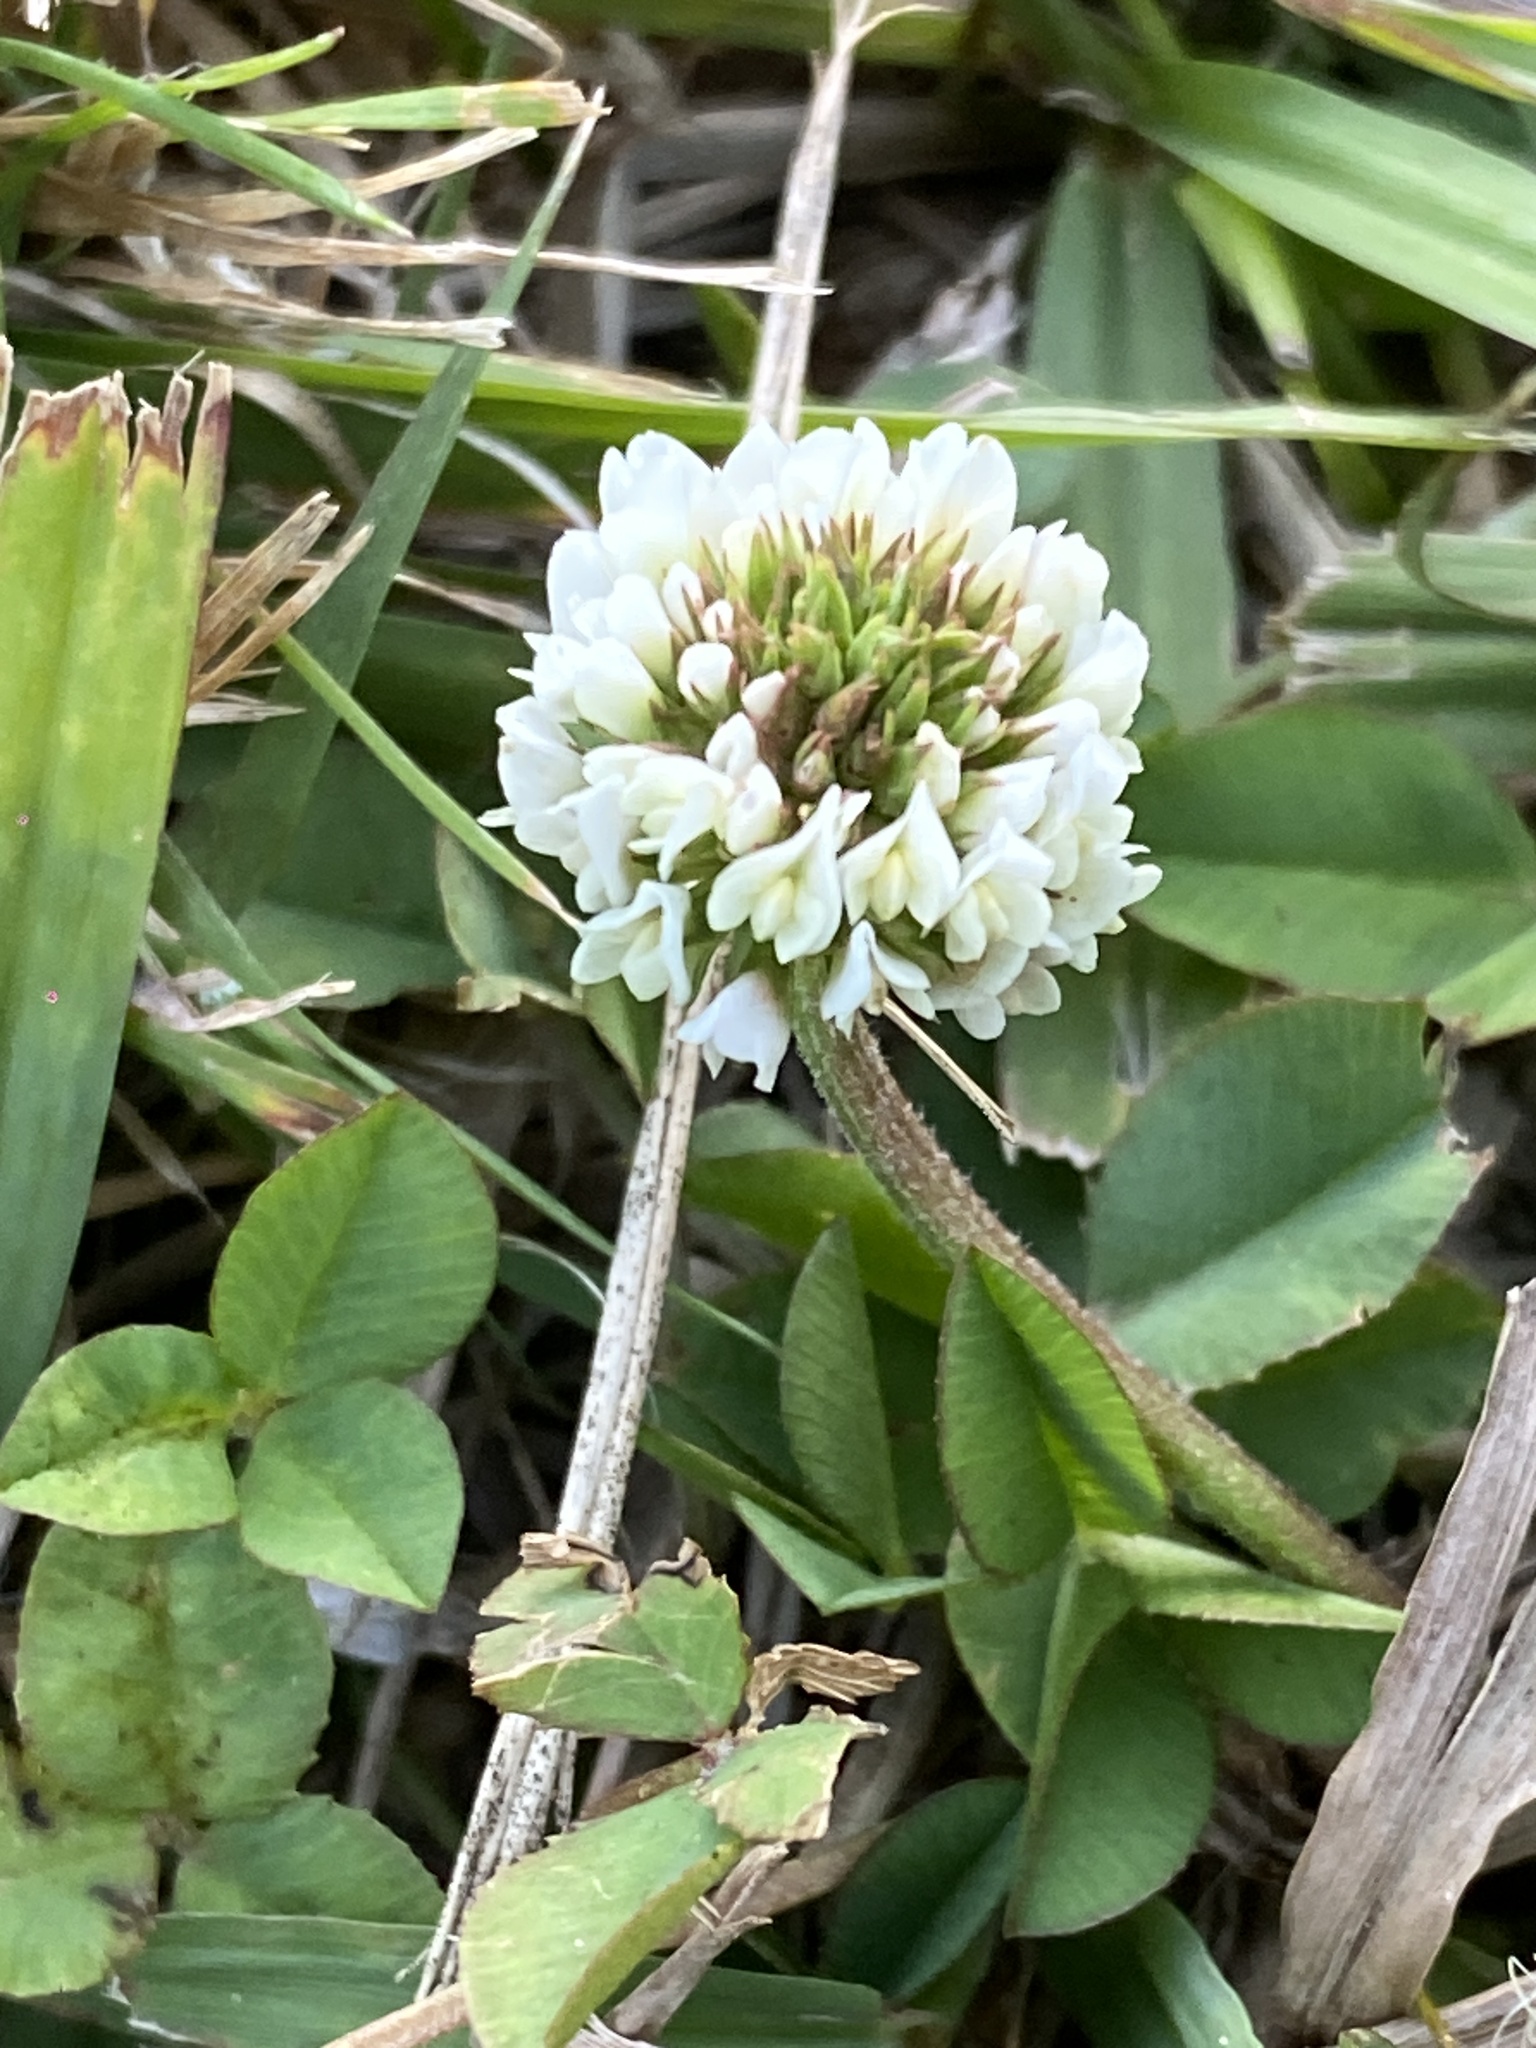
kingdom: Plantae
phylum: Tracheophyta
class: Magnoliopsida
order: Fabales
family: Fabaceae
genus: Trifolium
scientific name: Trifolium repens
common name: White clover
